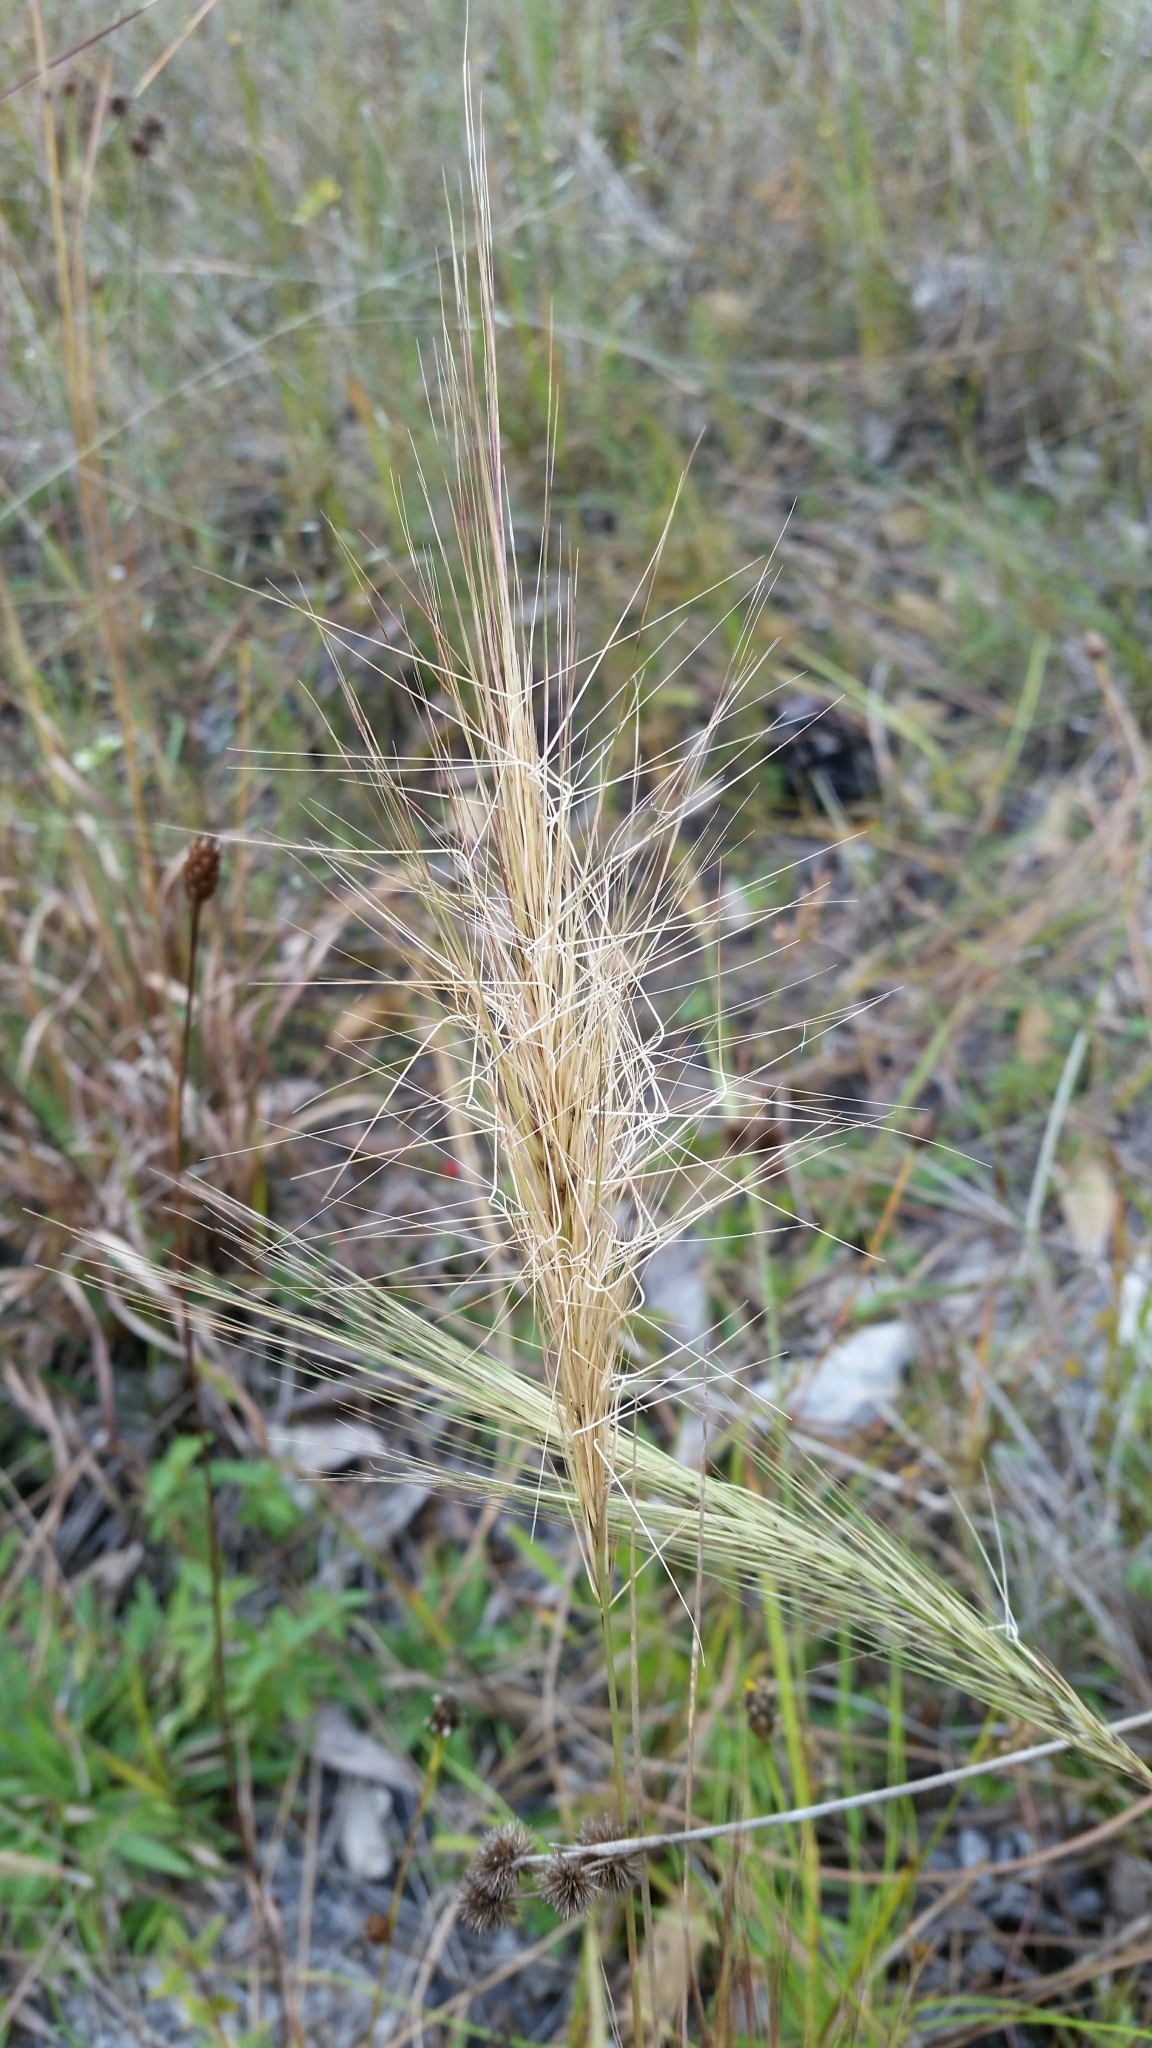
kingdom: Plantae
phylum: Tracheophyta
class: Liliopsida
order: Poales
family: Poaceae
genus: Aristida
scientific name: Aristida spiciformis
